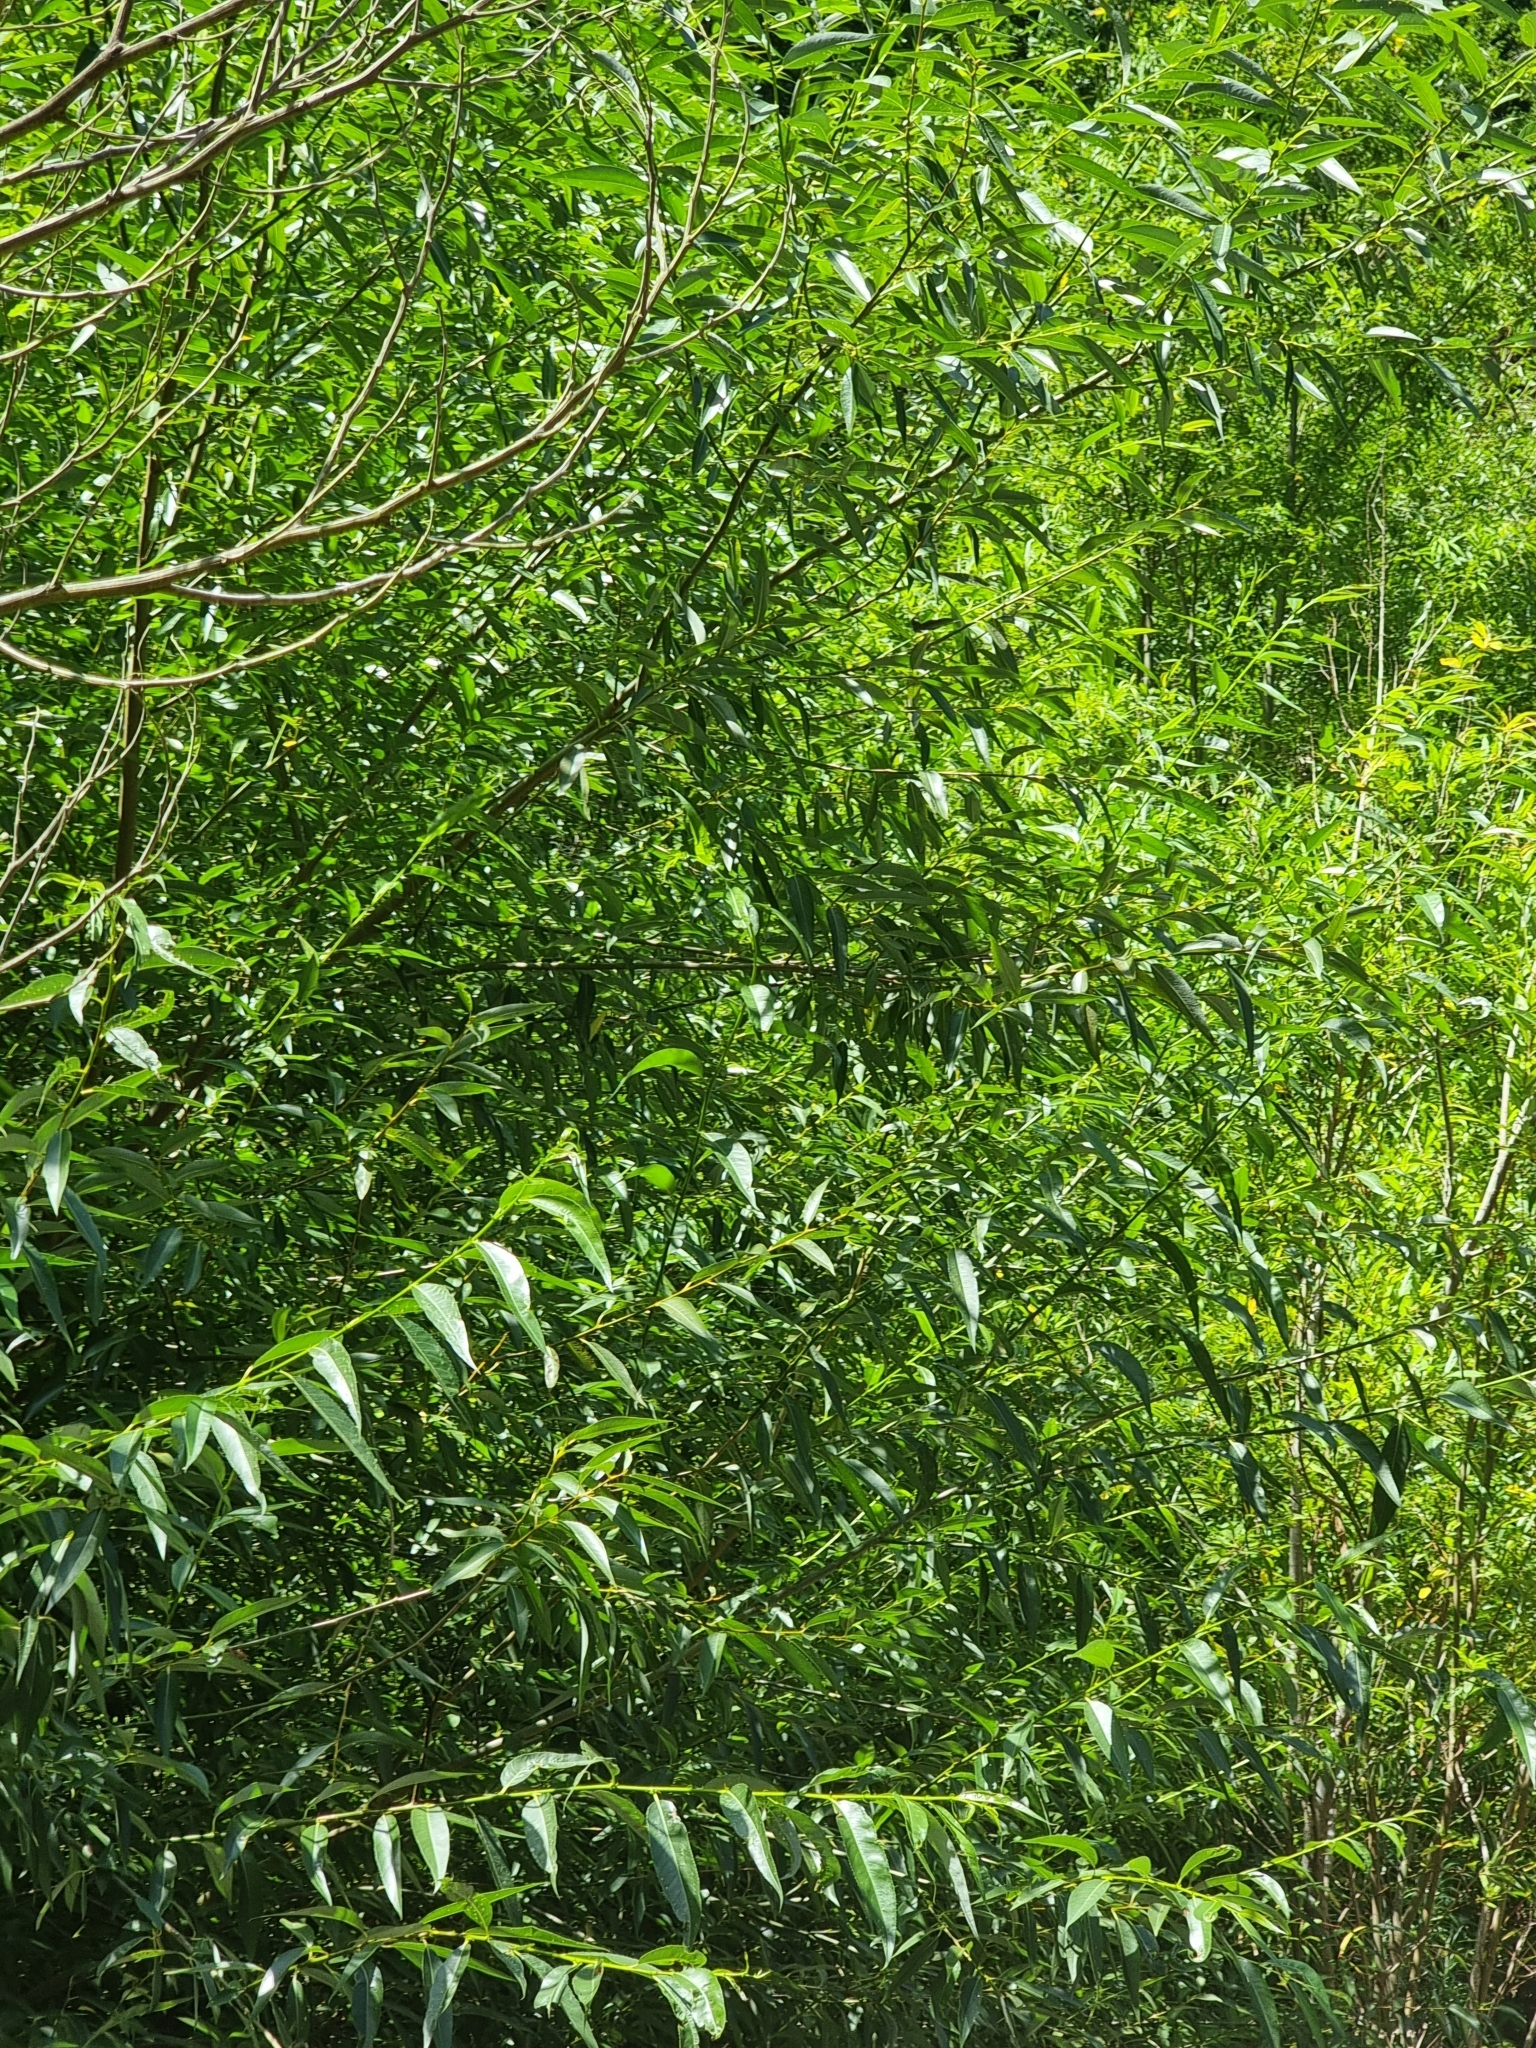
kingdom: Plantae
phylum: Tracheophyta
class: Magnoliopsida
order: Malpighiales
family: Salicaceae
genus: Salix
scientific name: Salix canariensis
